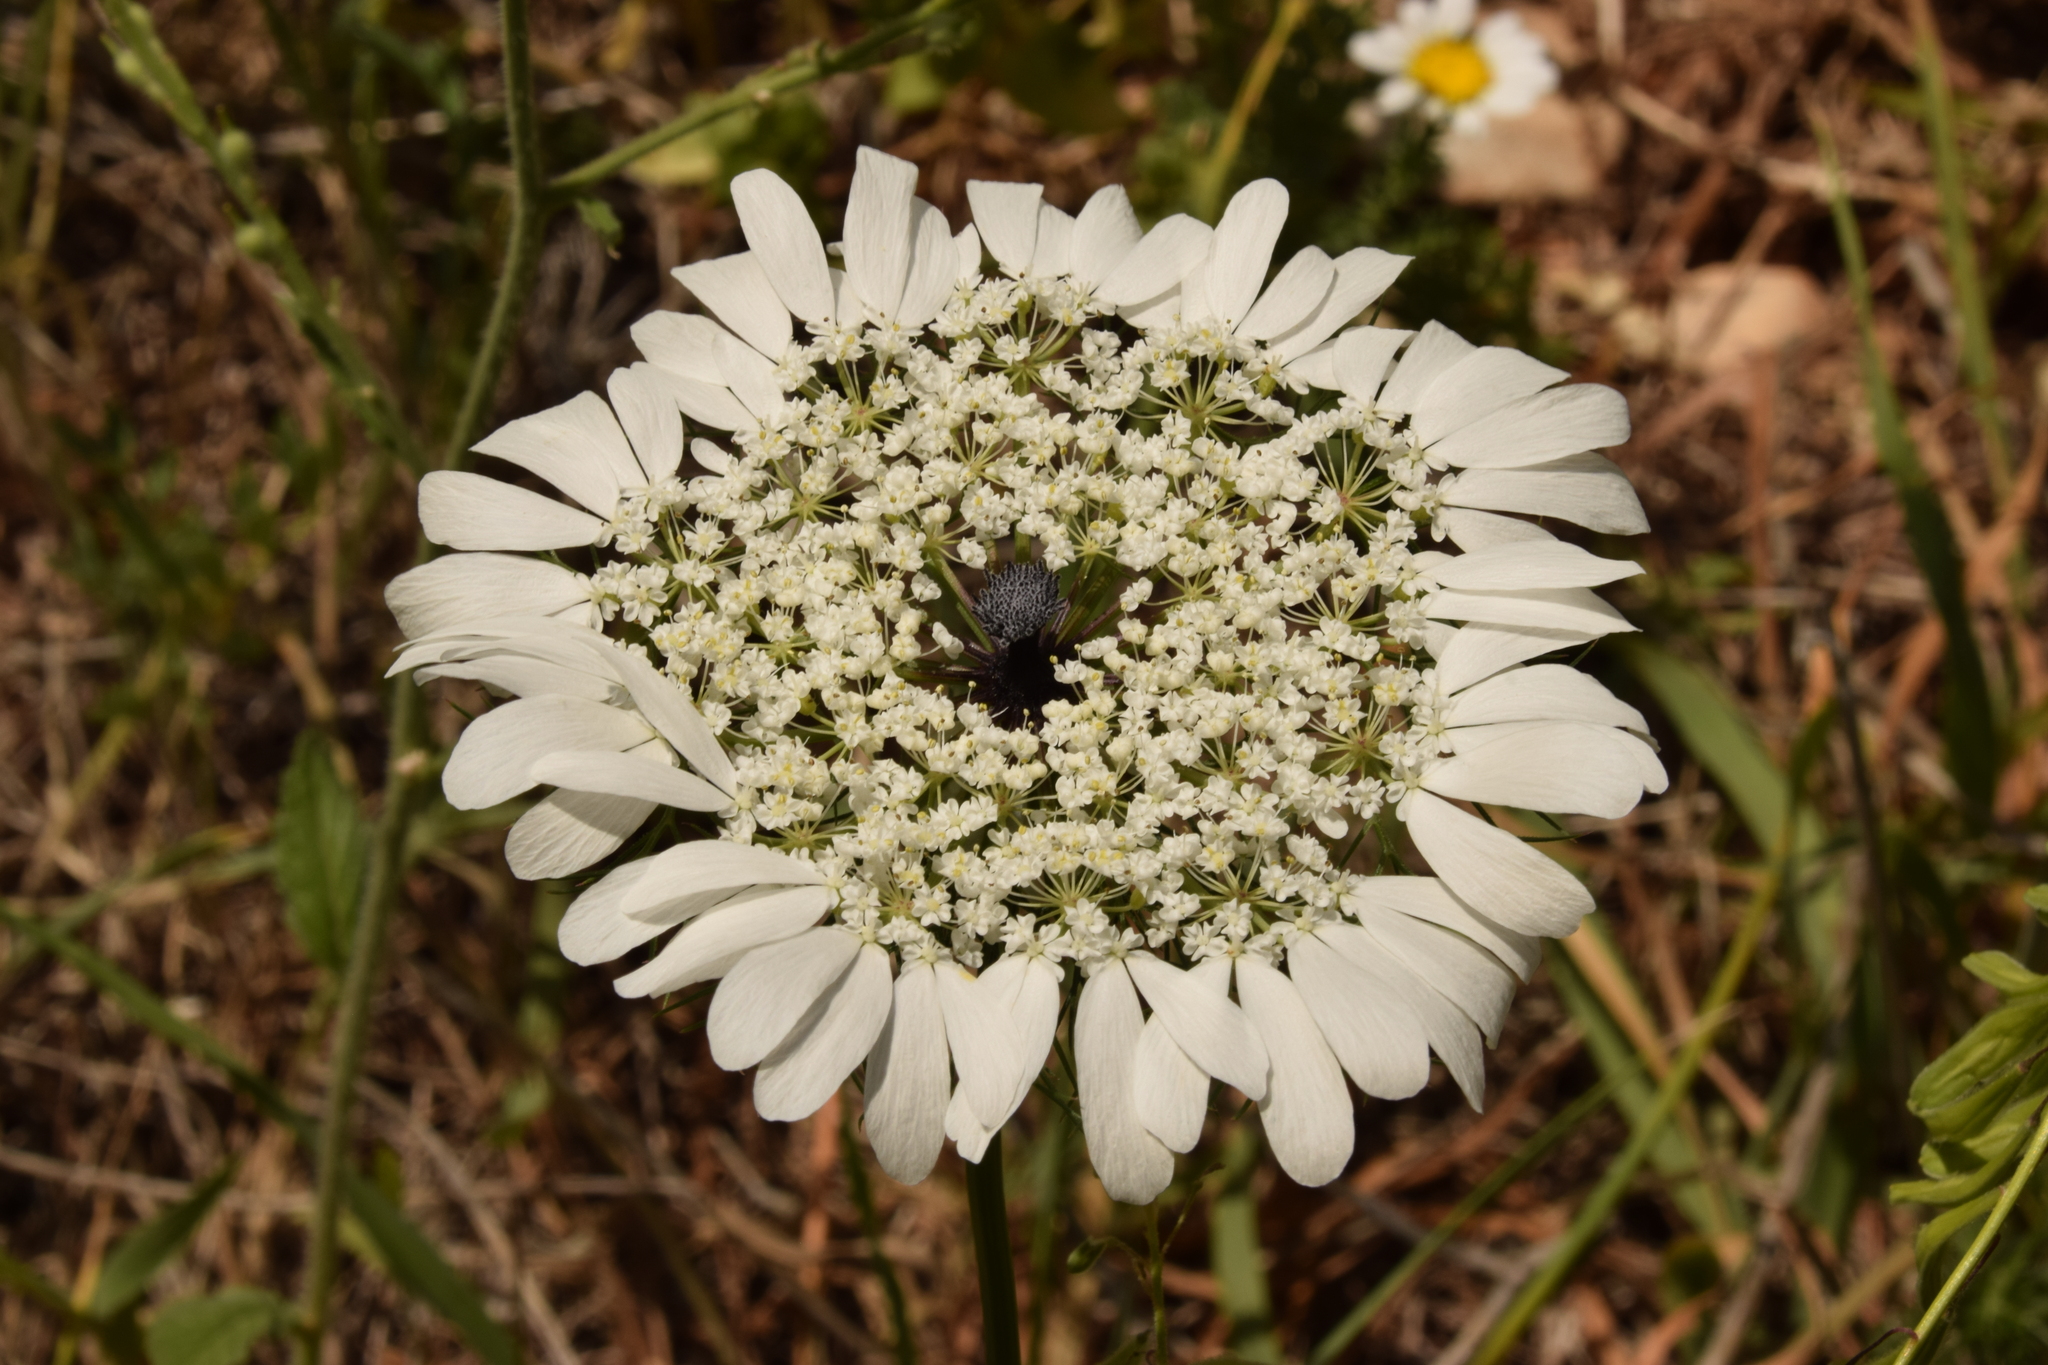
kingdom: Plantae
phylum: Tracheophyta
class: Magnoliopsida
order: Apiales
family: Apiaceae
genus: Artedia
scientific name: Artedia squamata
